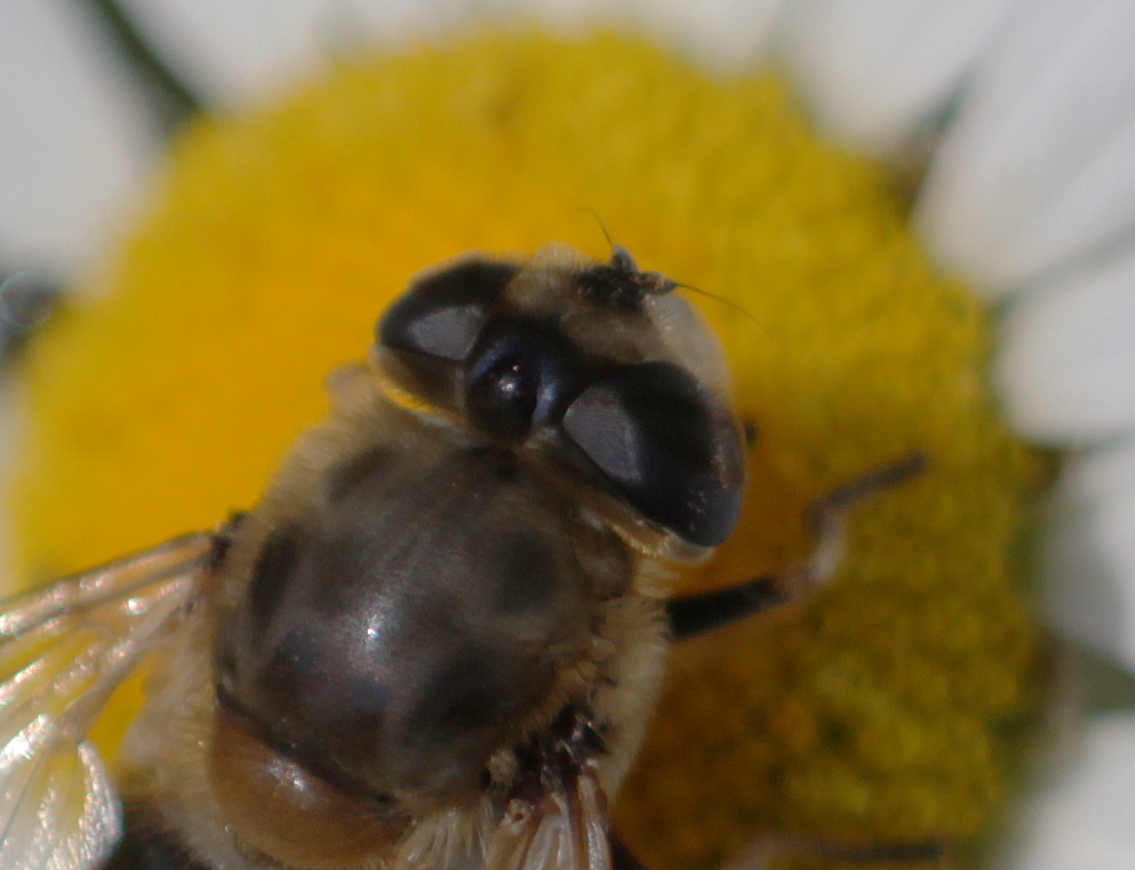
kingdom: Animalia
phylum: Arthropoda
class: Insecta
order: Diptera
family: Syrphidae
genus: Eristalis
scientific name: Eristalis tenax
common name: Drone fly
